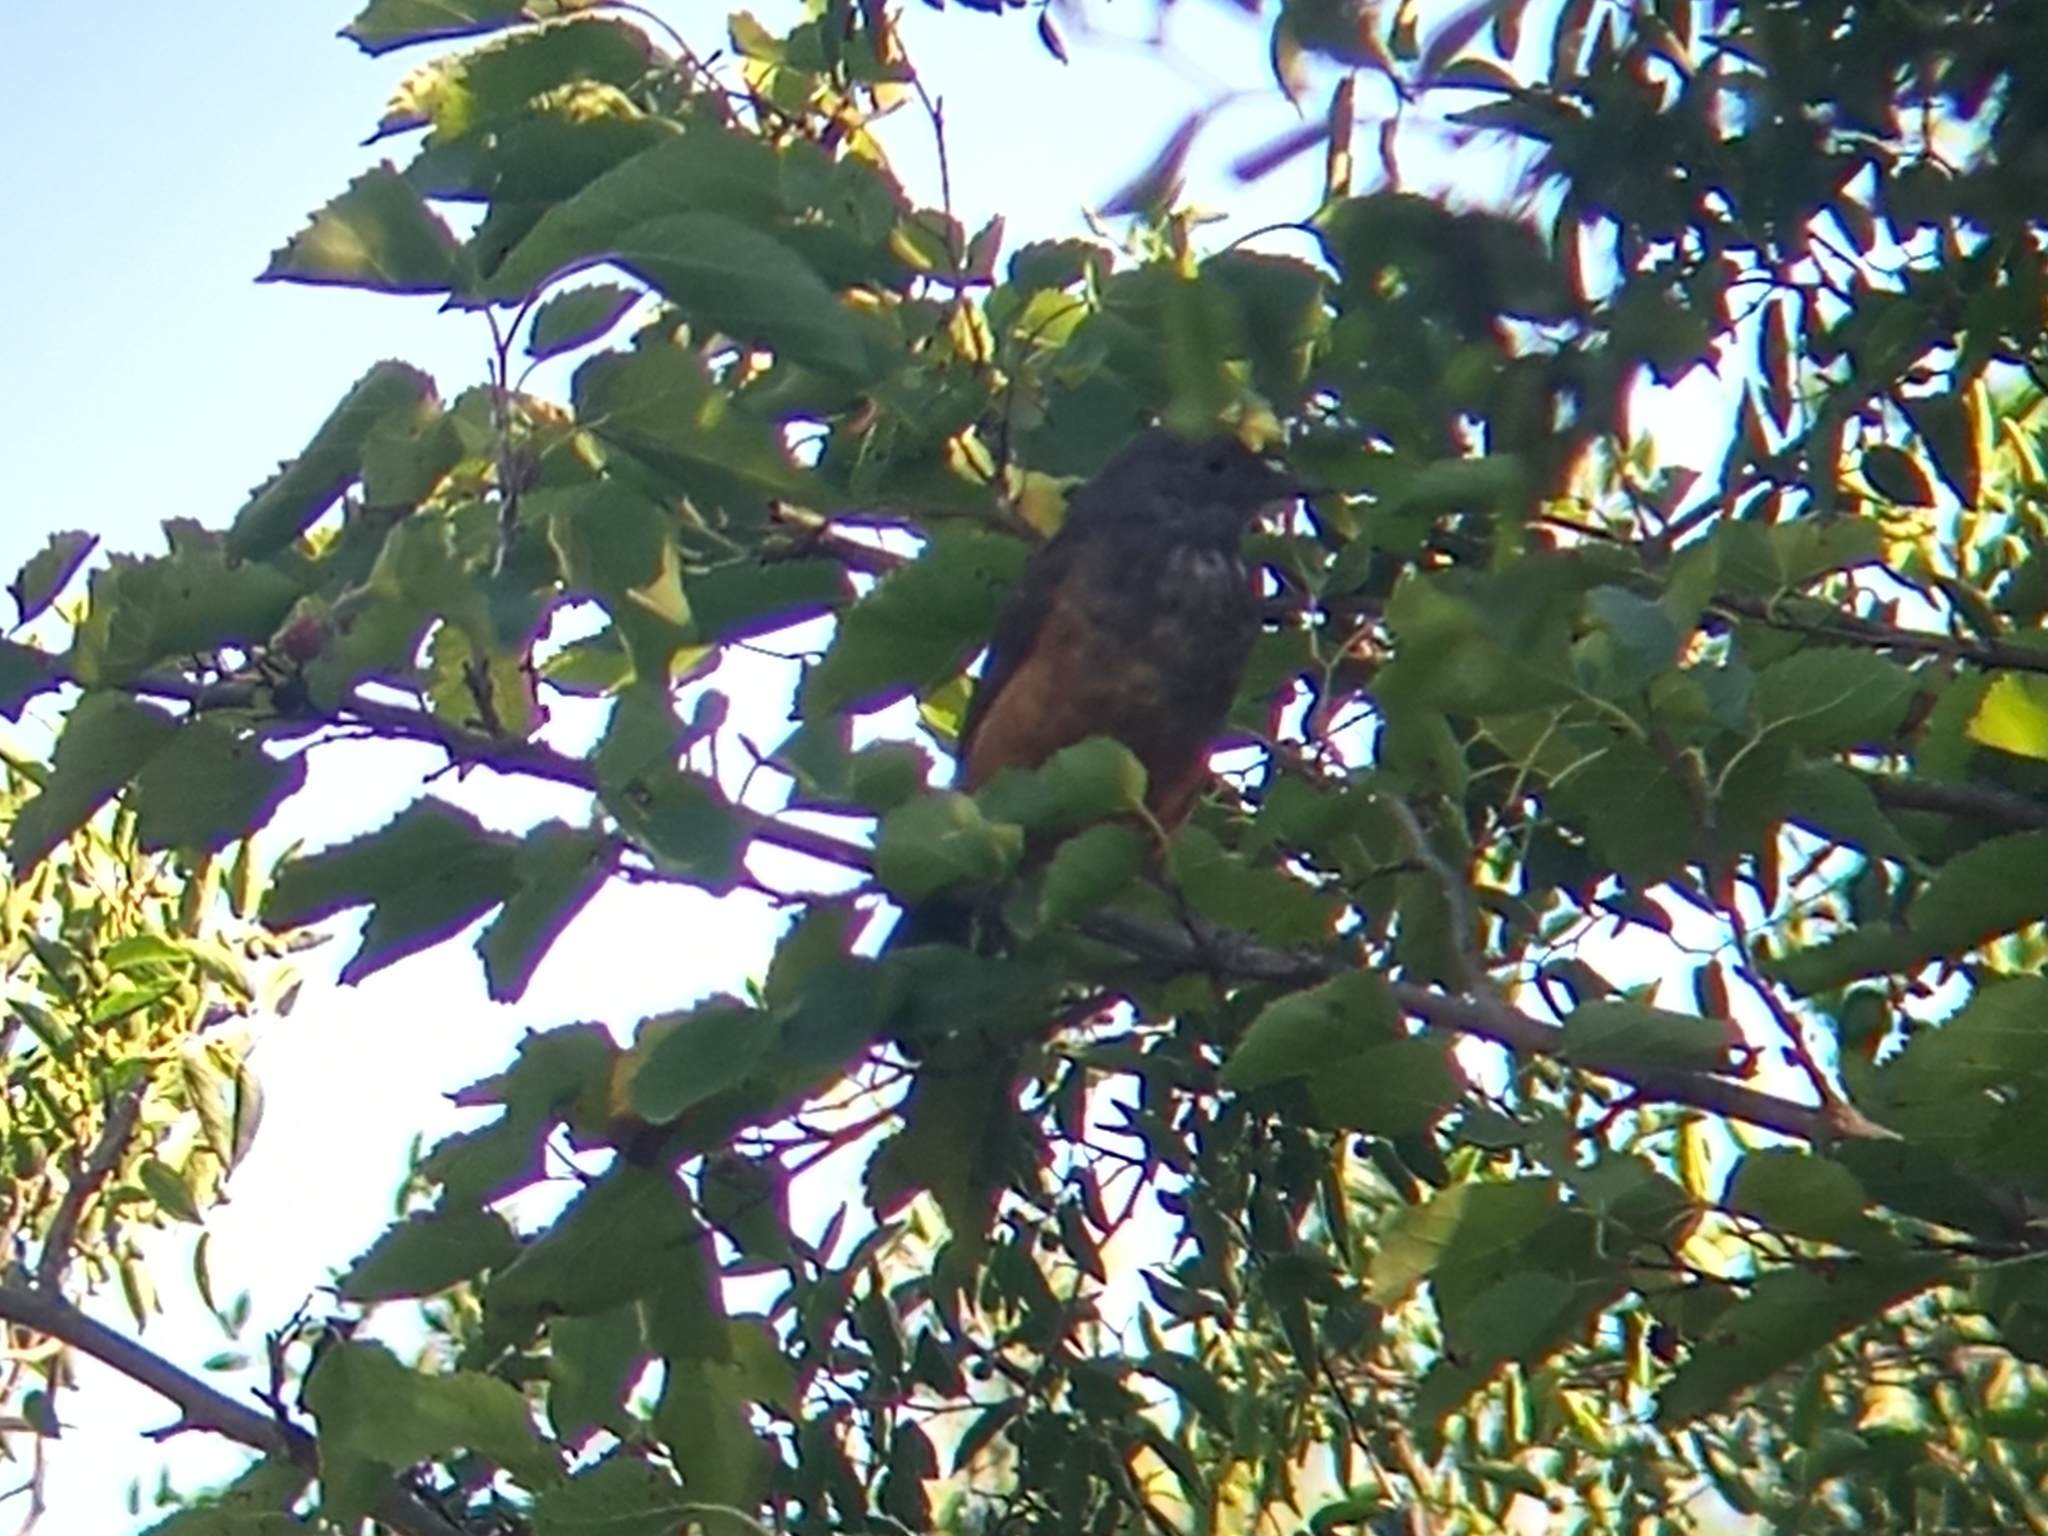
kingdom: Animalia
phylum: Chordata
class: Aves
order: Passeriformes
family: Turdidae
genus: Turdus
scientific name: Turdus rufiventris
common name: Rufous-bellied thrush
